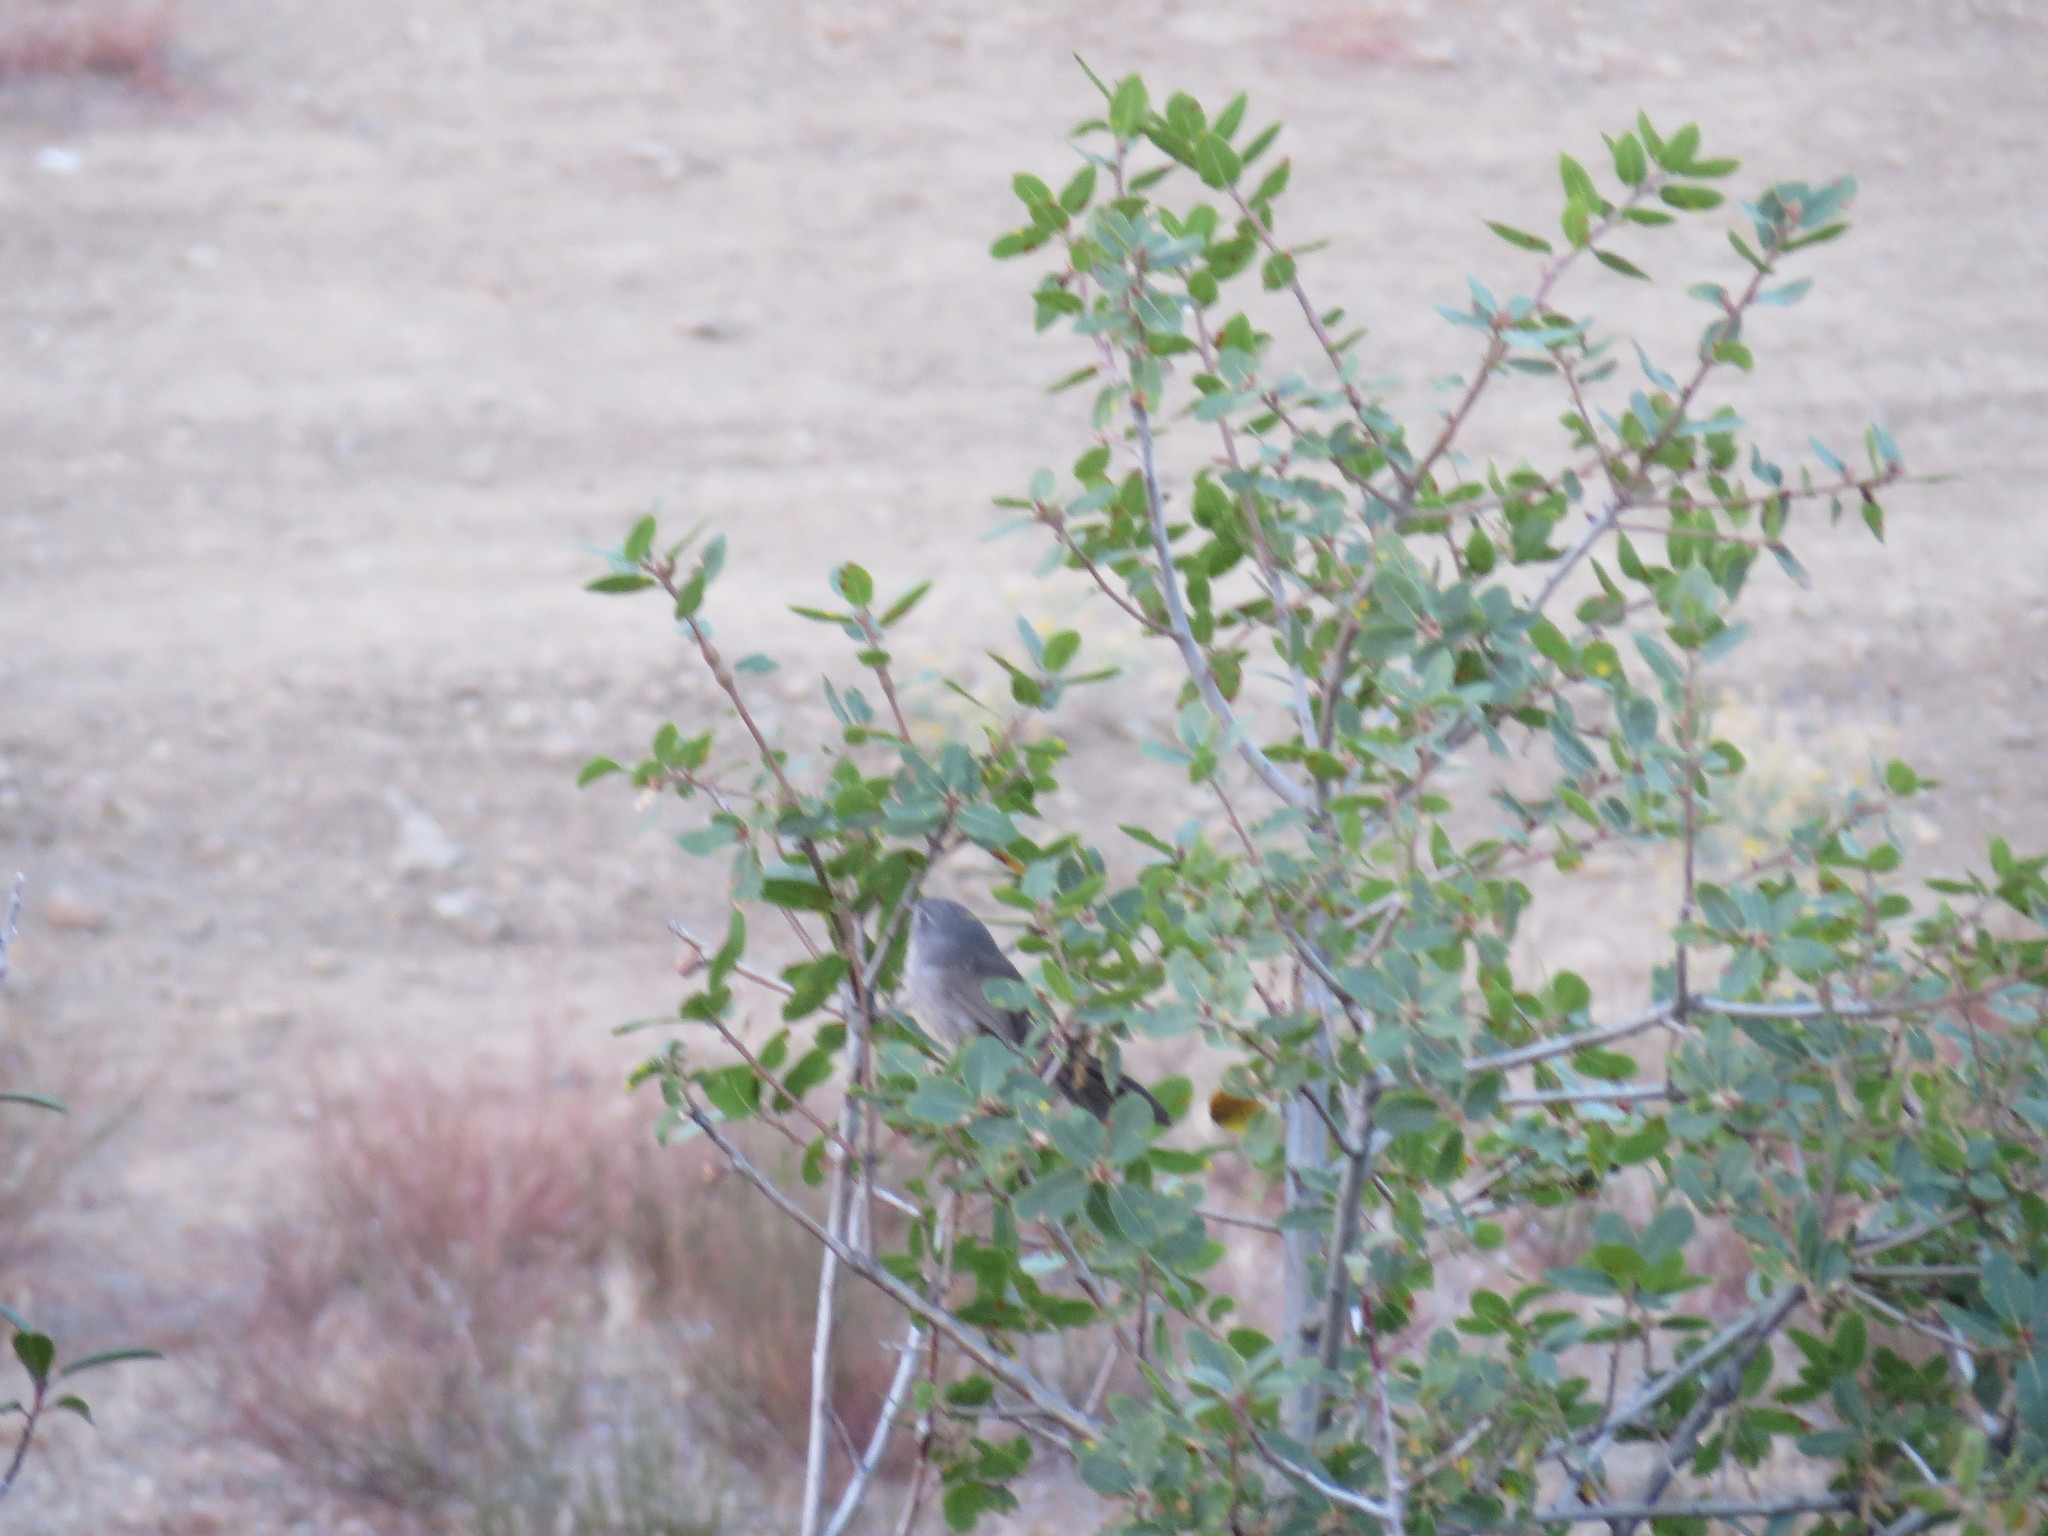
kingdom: Animalia
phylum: Chordata
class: Aves
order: Passeriformes
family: Sylviidae
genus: Chamaea
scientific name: Chamaea fasciata
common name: Wrentit
